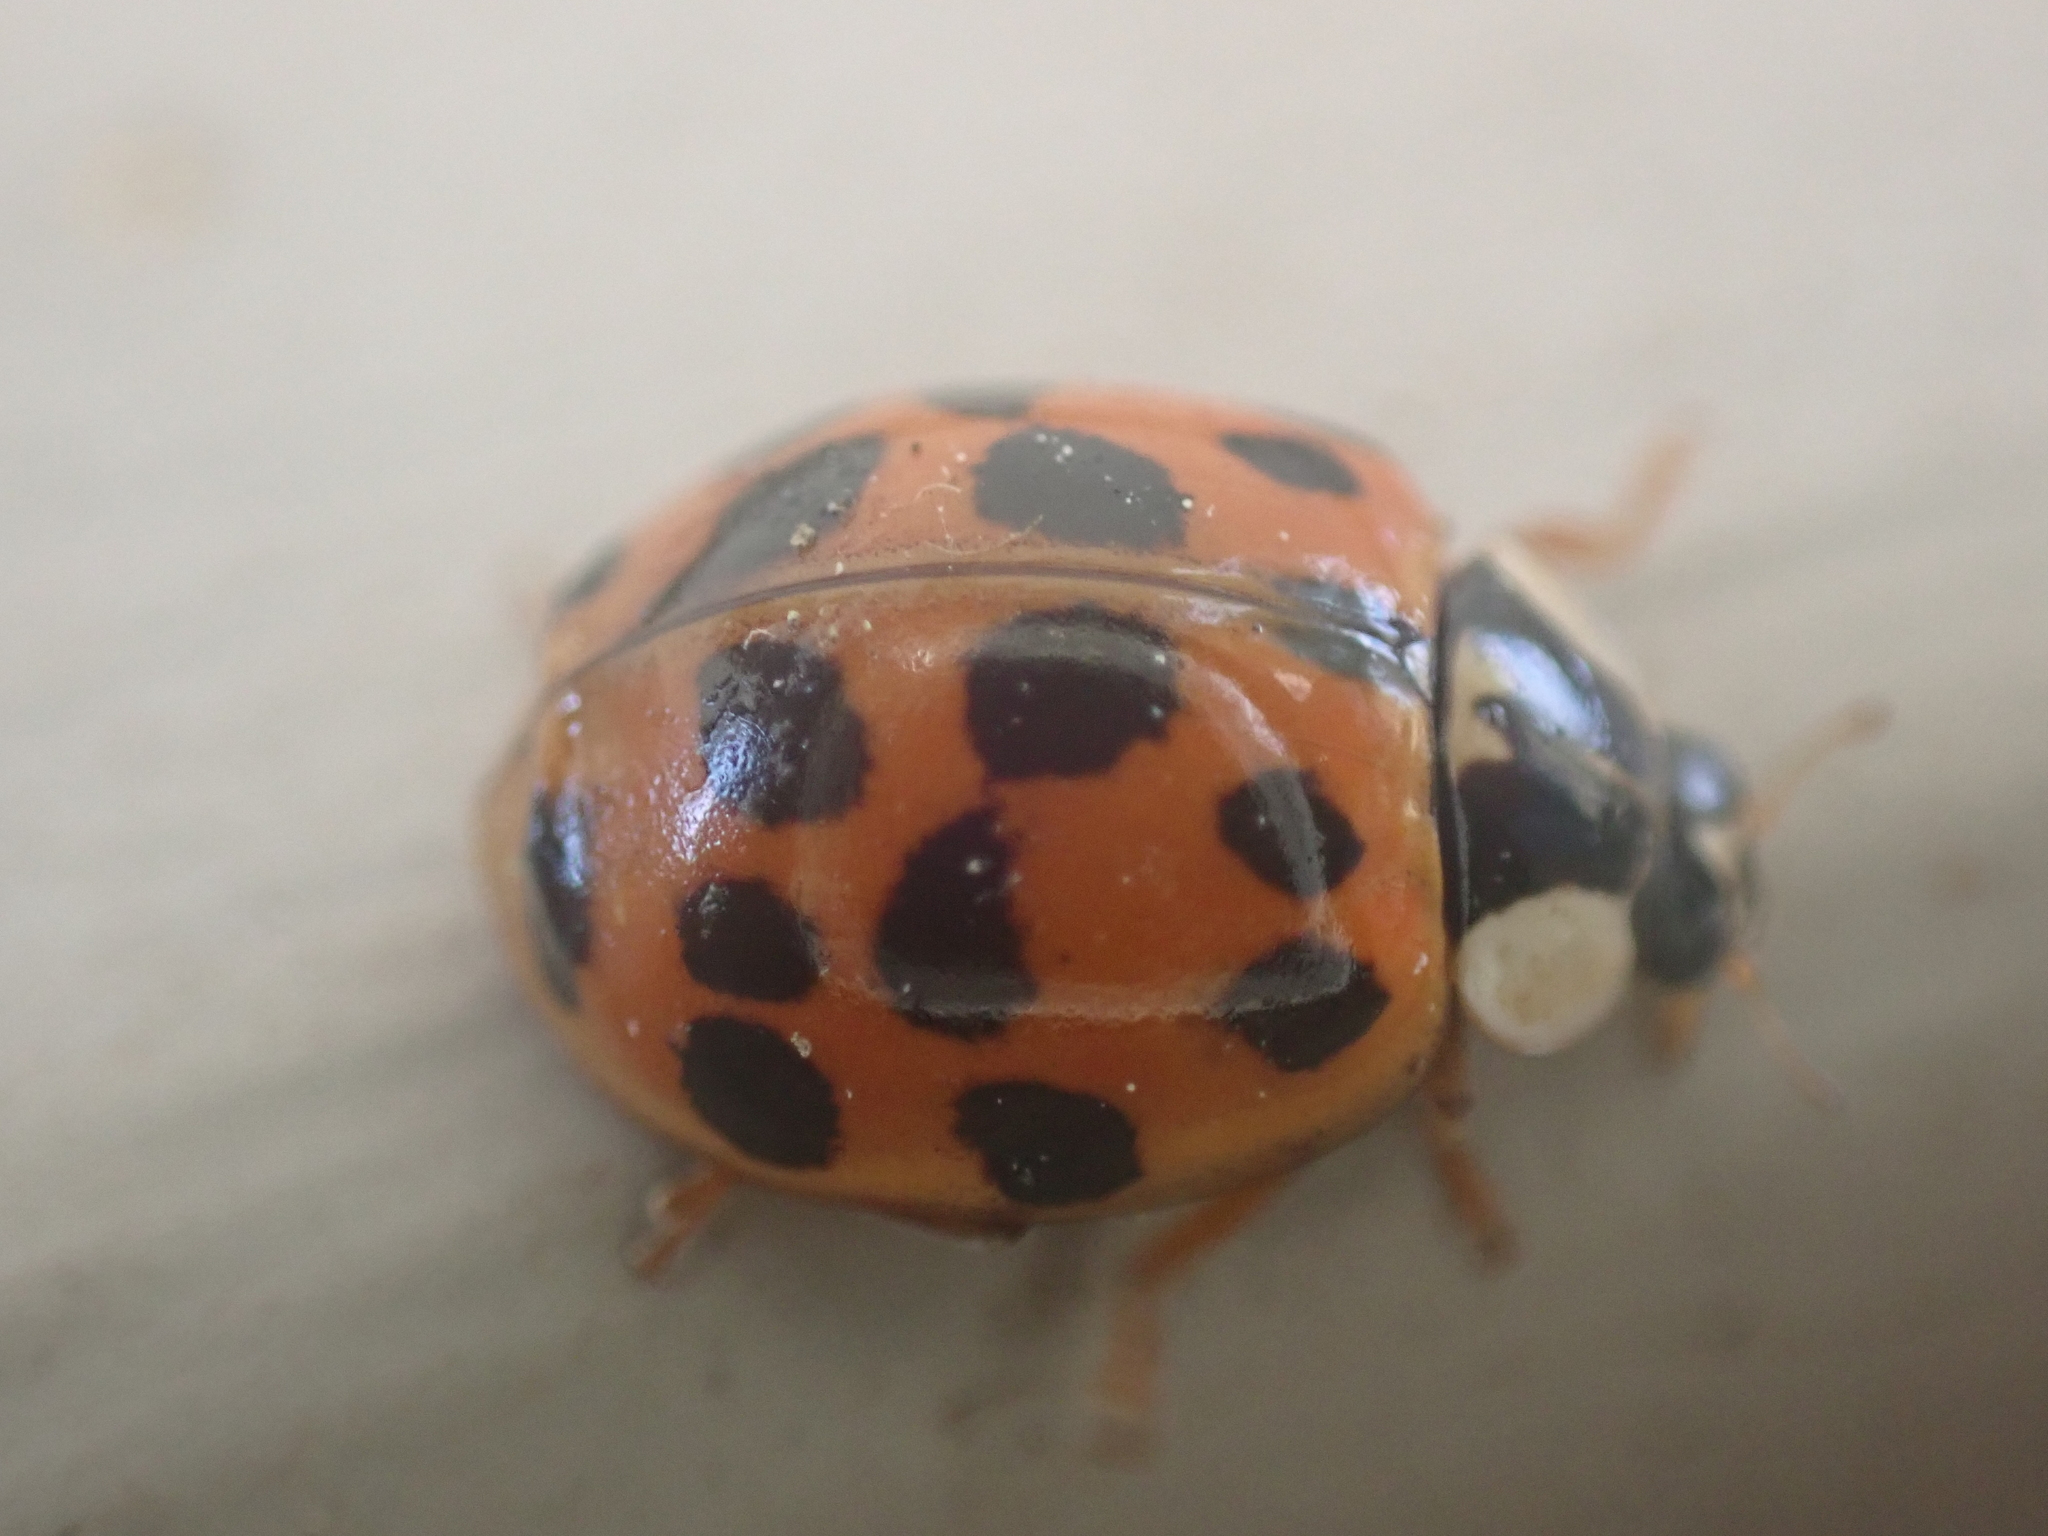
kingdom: Animalia
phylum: Arthropoda
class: Insecta
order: Coleoptera
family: Coccinellidae
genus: Harmonia
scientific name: Harmonia axyridis
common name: Harlequin ladybird
